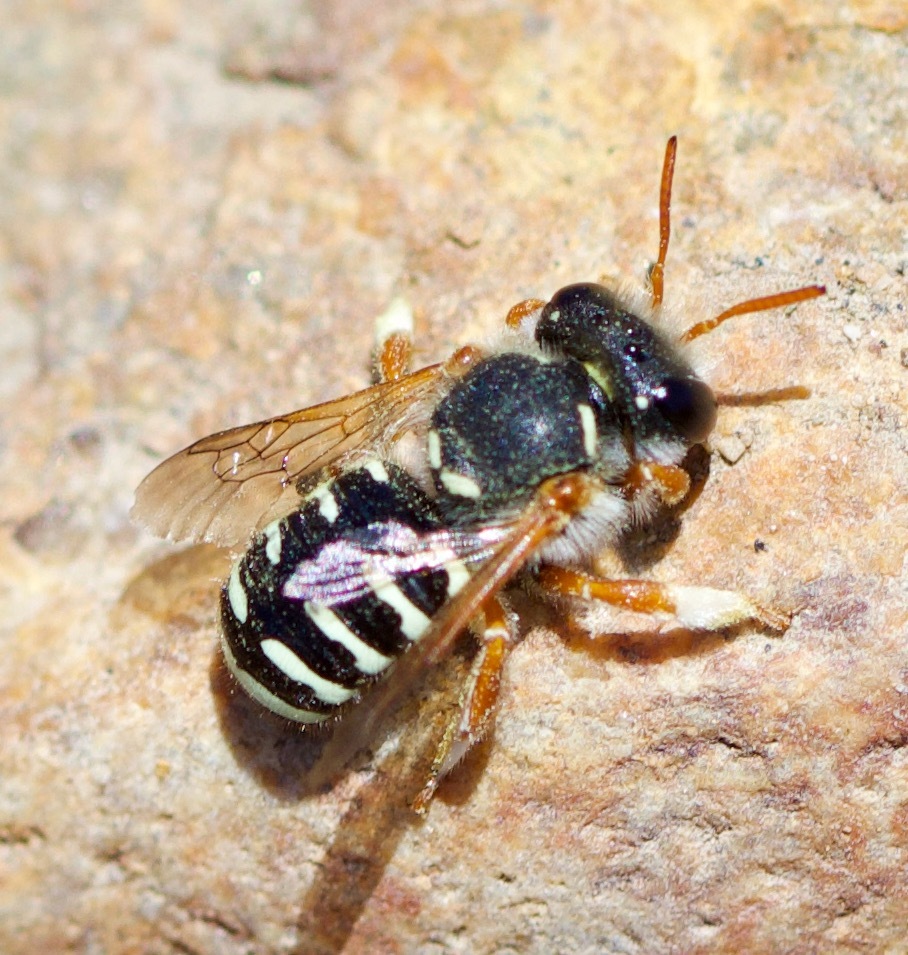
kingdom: Animalia
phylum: Arthropoda
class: Insecta
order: Hymenoptera
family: Megachilidae
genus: Anthidium
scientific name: Anthidium chilense
